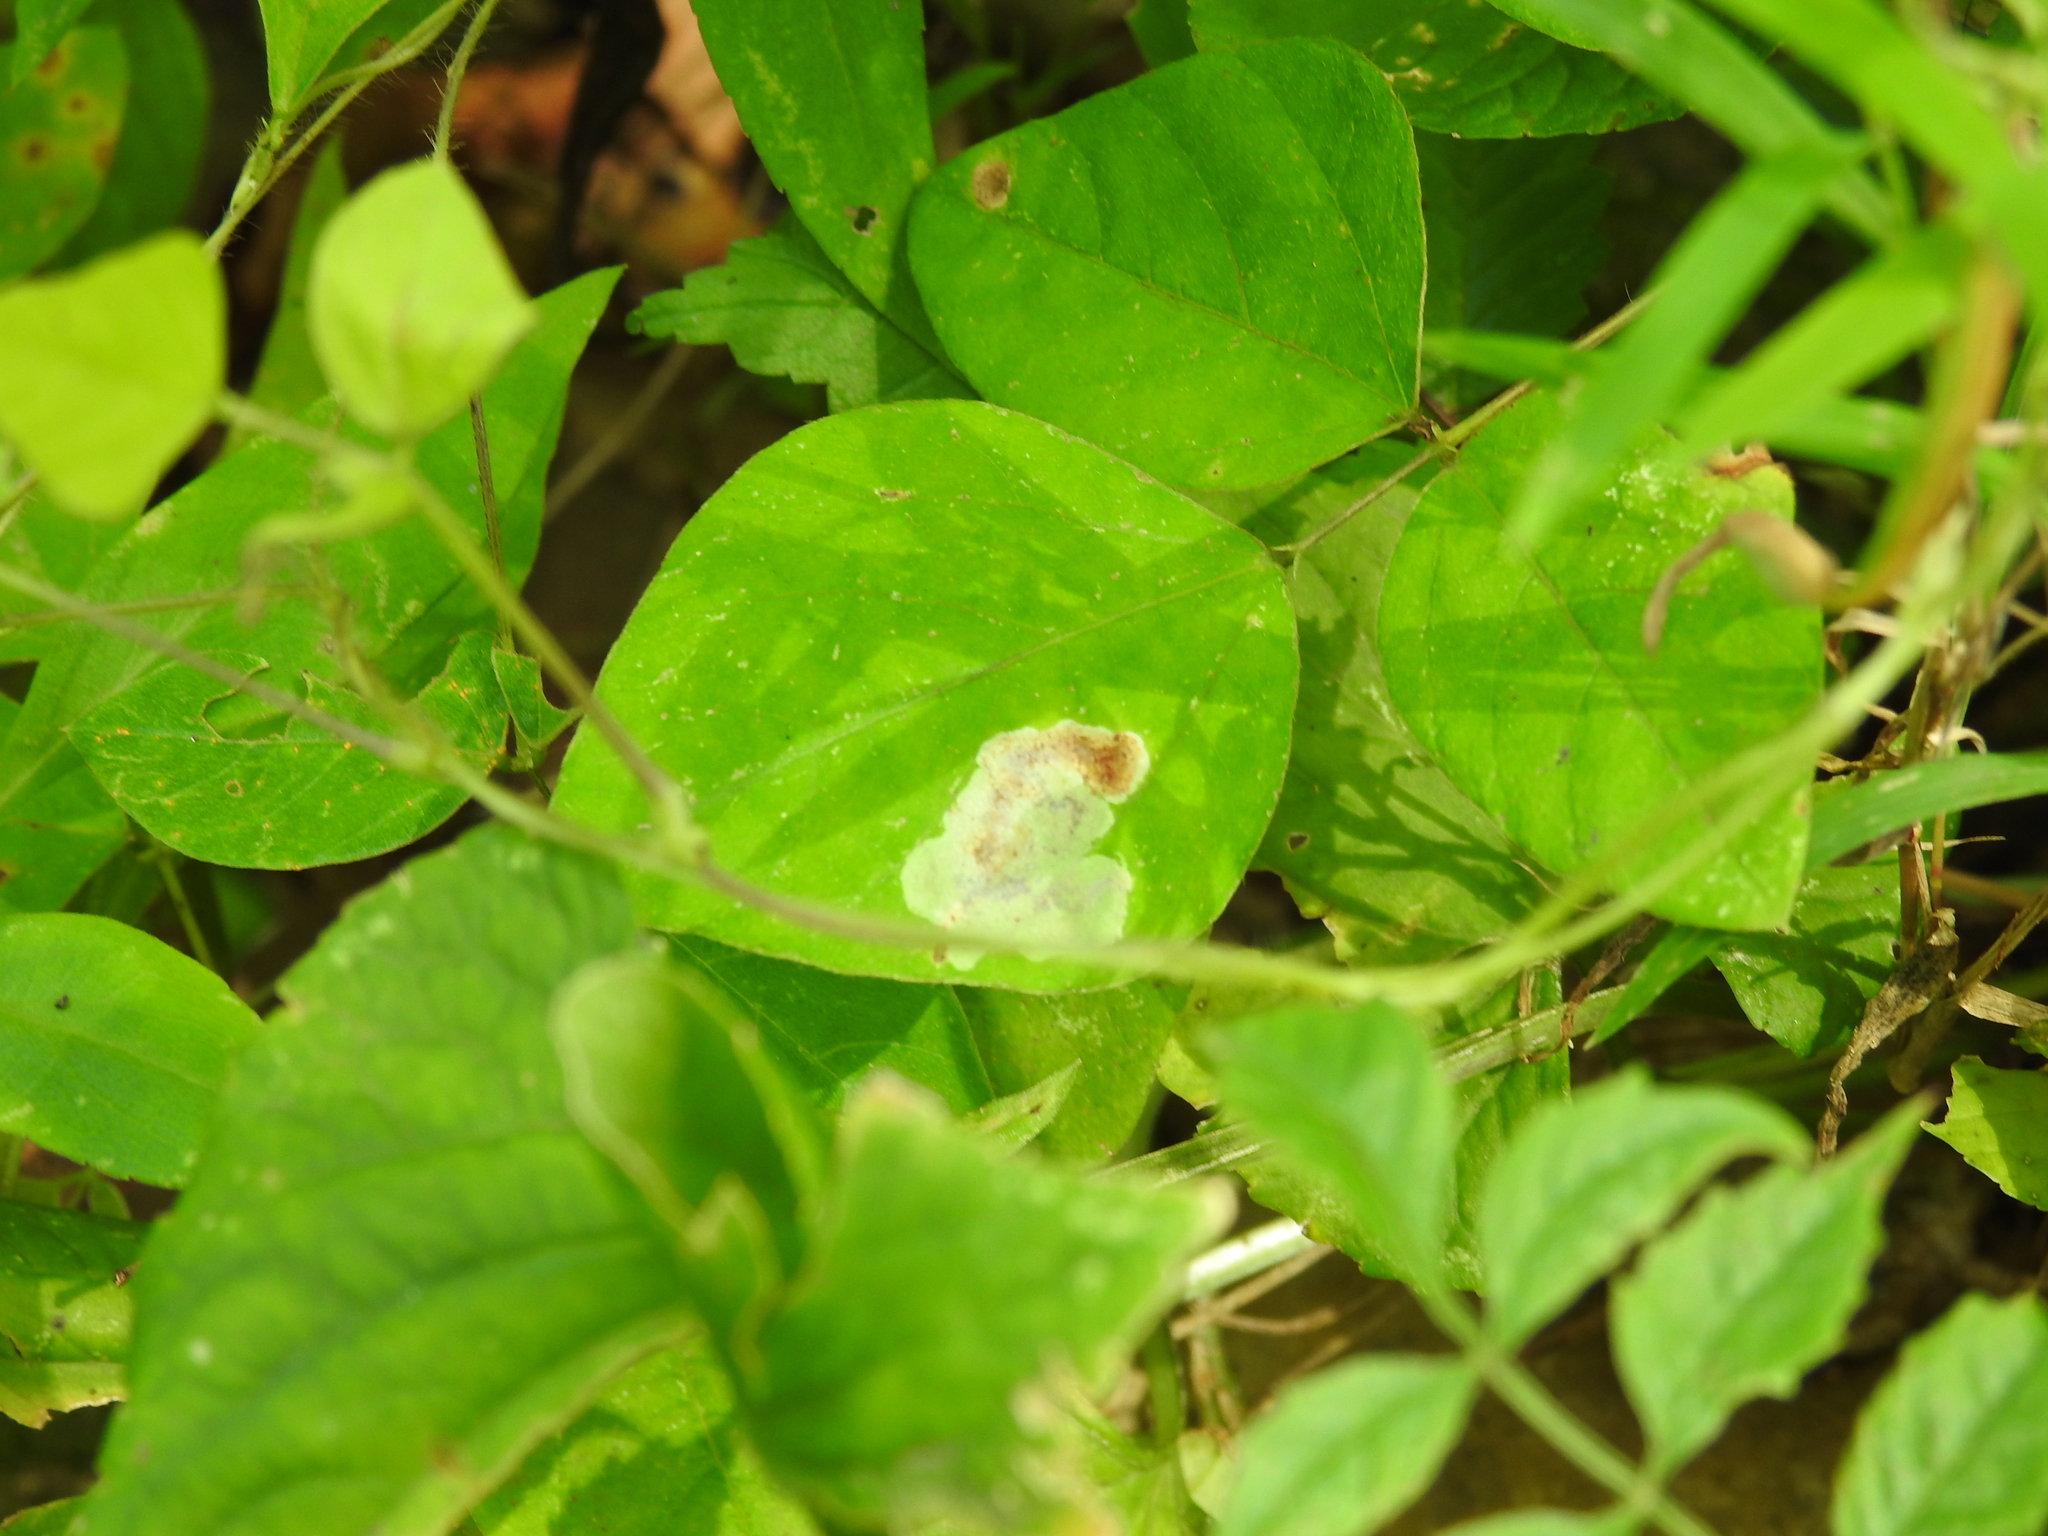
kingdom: Animalia
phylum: Arthropoda
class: Insecta
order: Lepidoptera
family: Gracillariidae
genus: Leucanthiza
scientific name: Leucanthiza amphicarpeaefoliella
